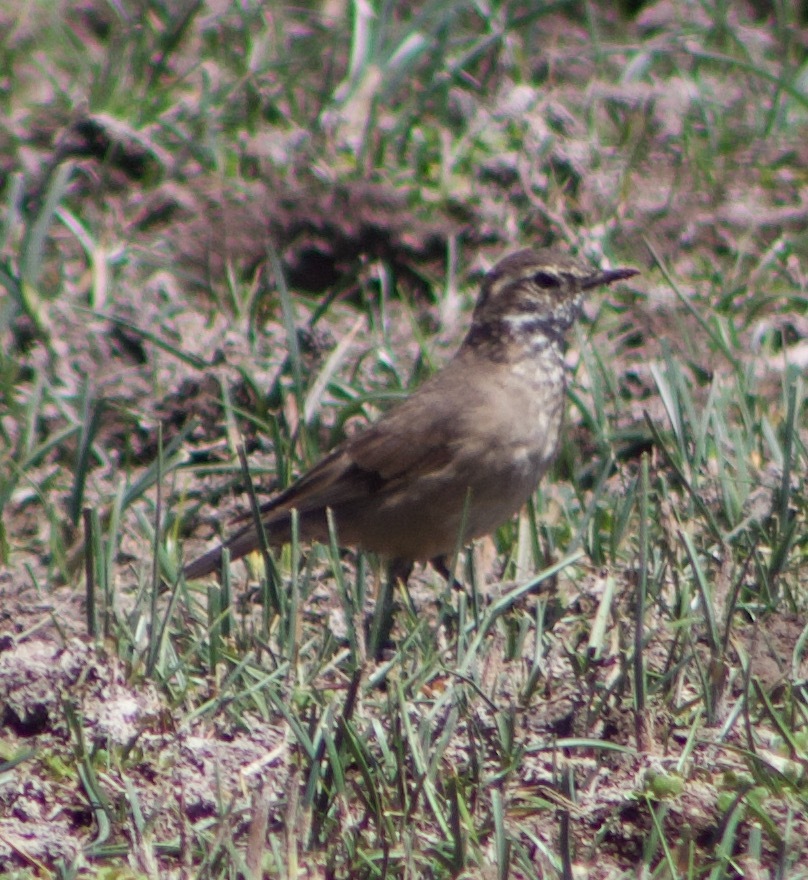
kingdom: Animalia
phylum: Chordata
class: Aves
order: Passeriformes
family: Furnariidae
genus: Cinclodes
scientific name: Cinclodes fuscus
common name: Buff-winged cinclodes
